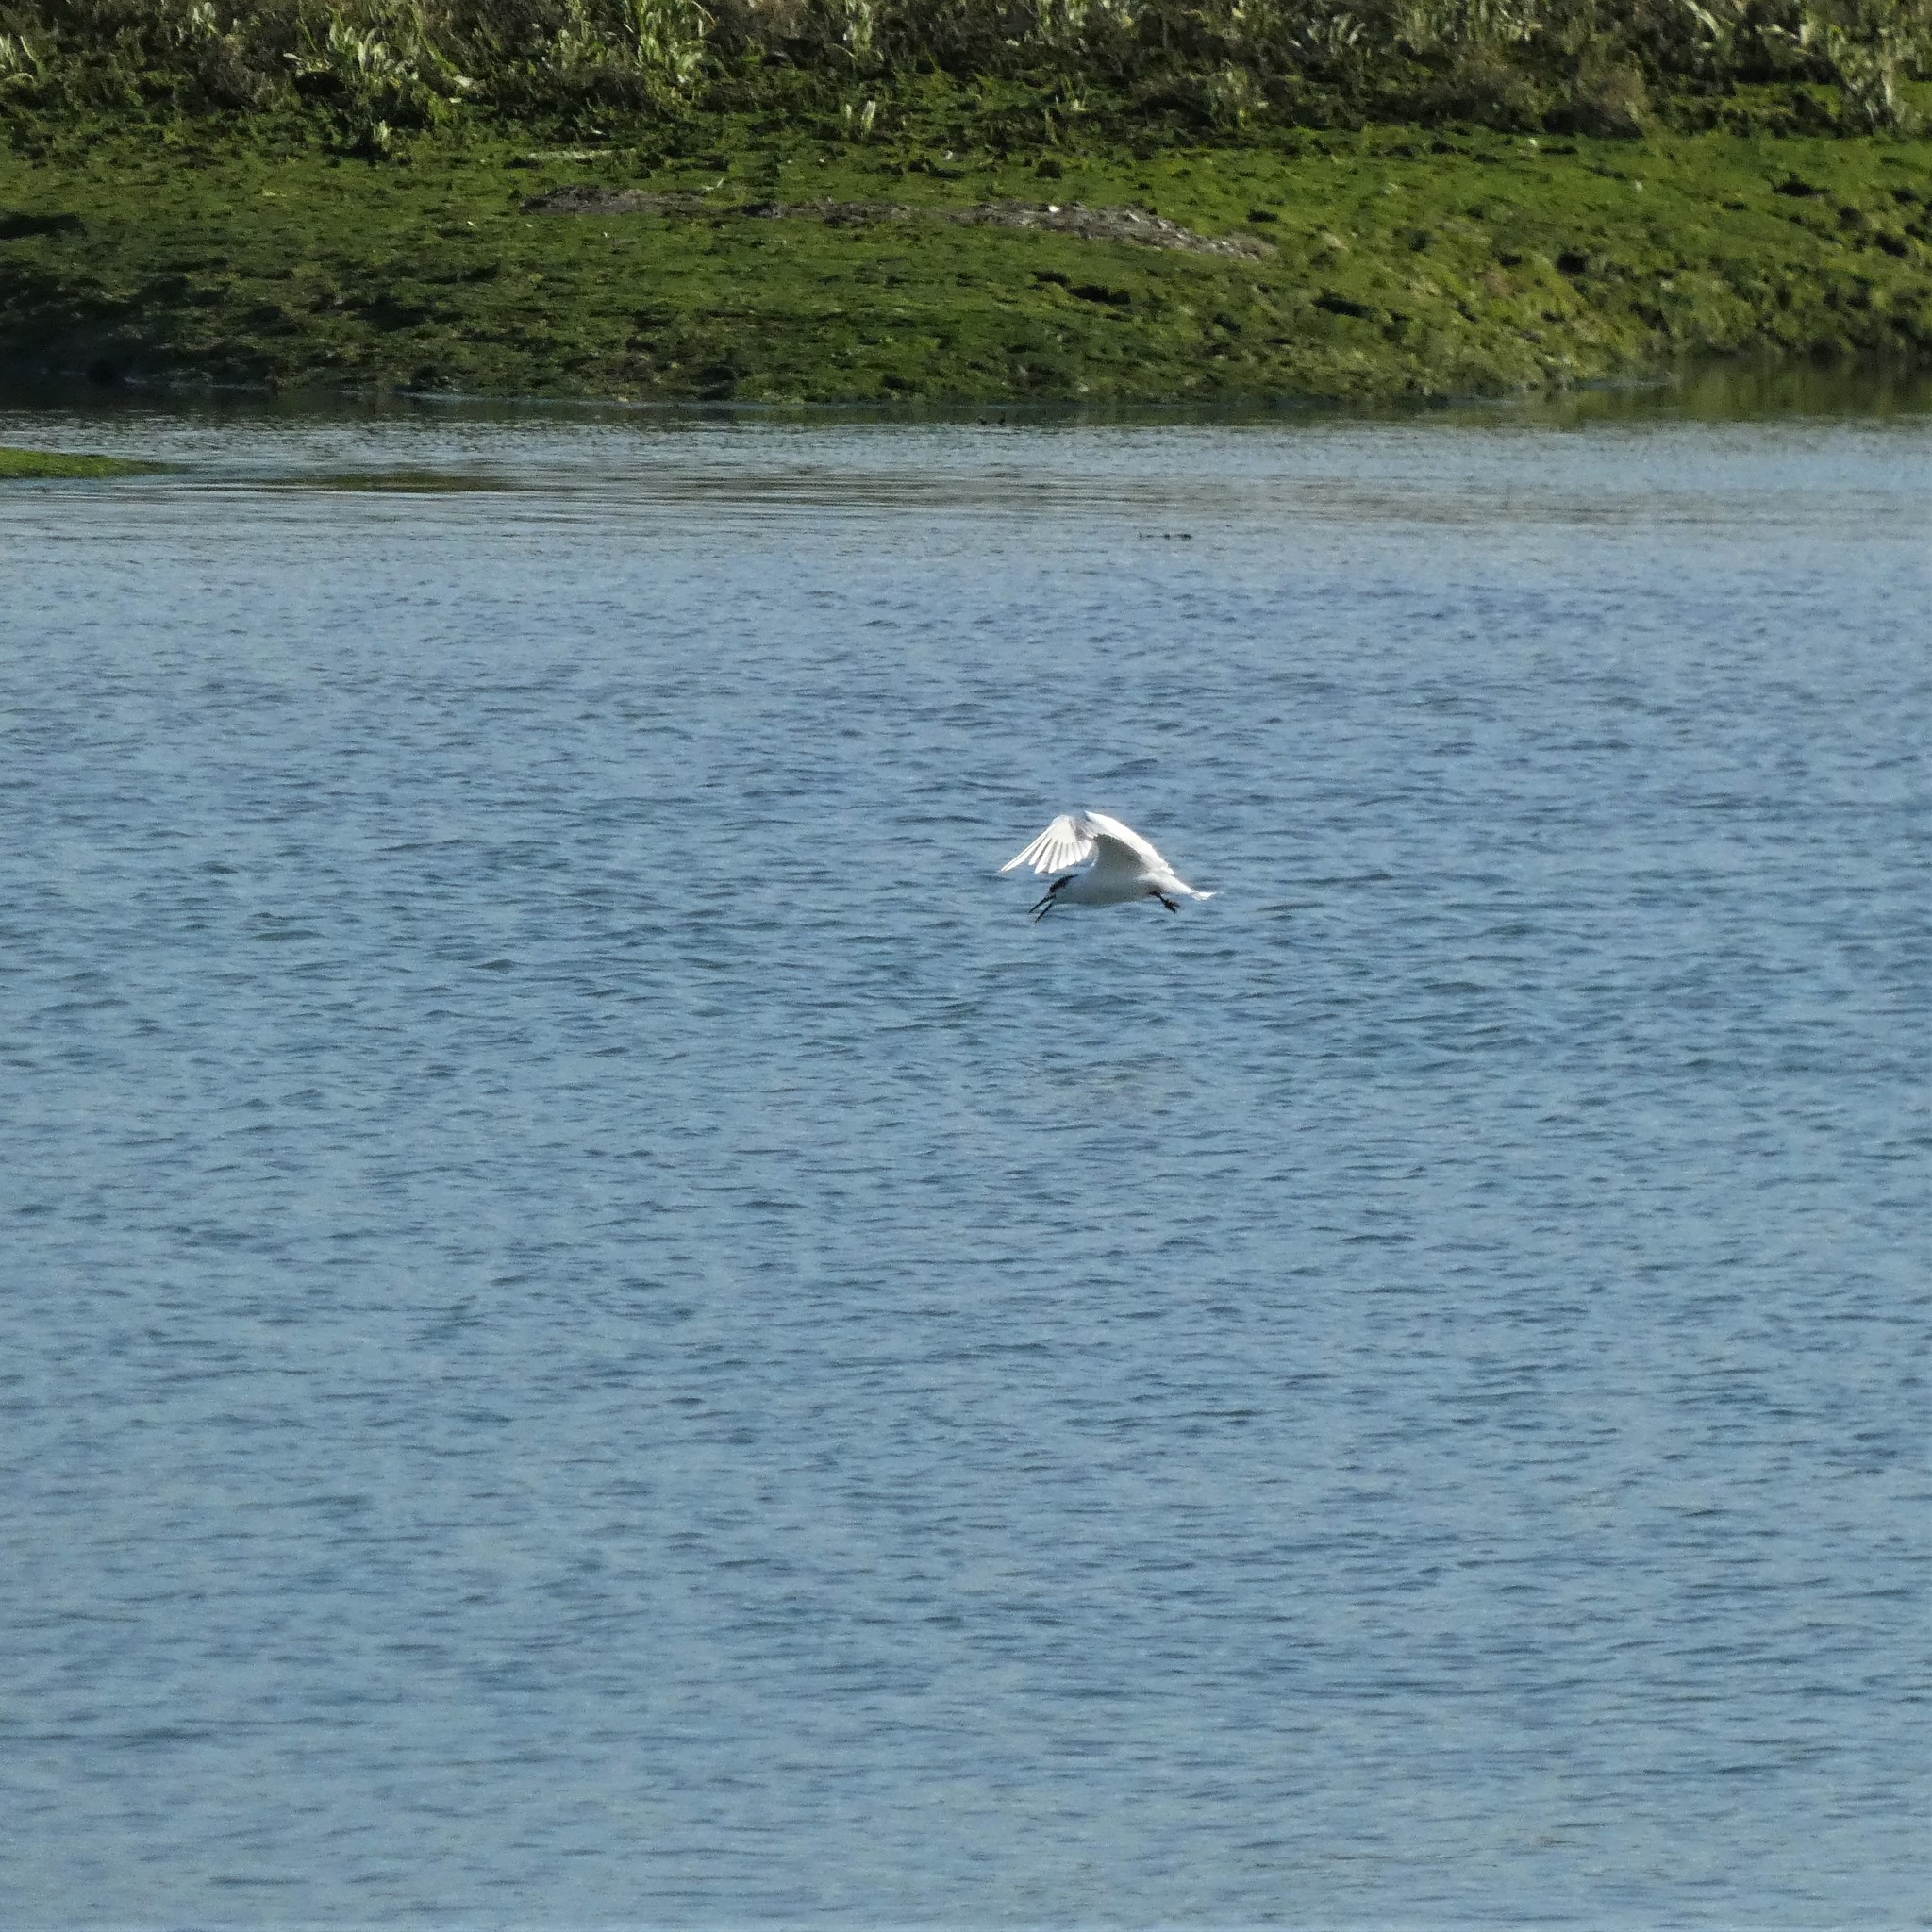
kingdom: Animalia
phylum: Chordata
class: Aves
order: Charadriiformes
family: Laridae
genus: Thalasseus
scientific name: Thalasseus sandvicensis
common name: Sandwich tern
